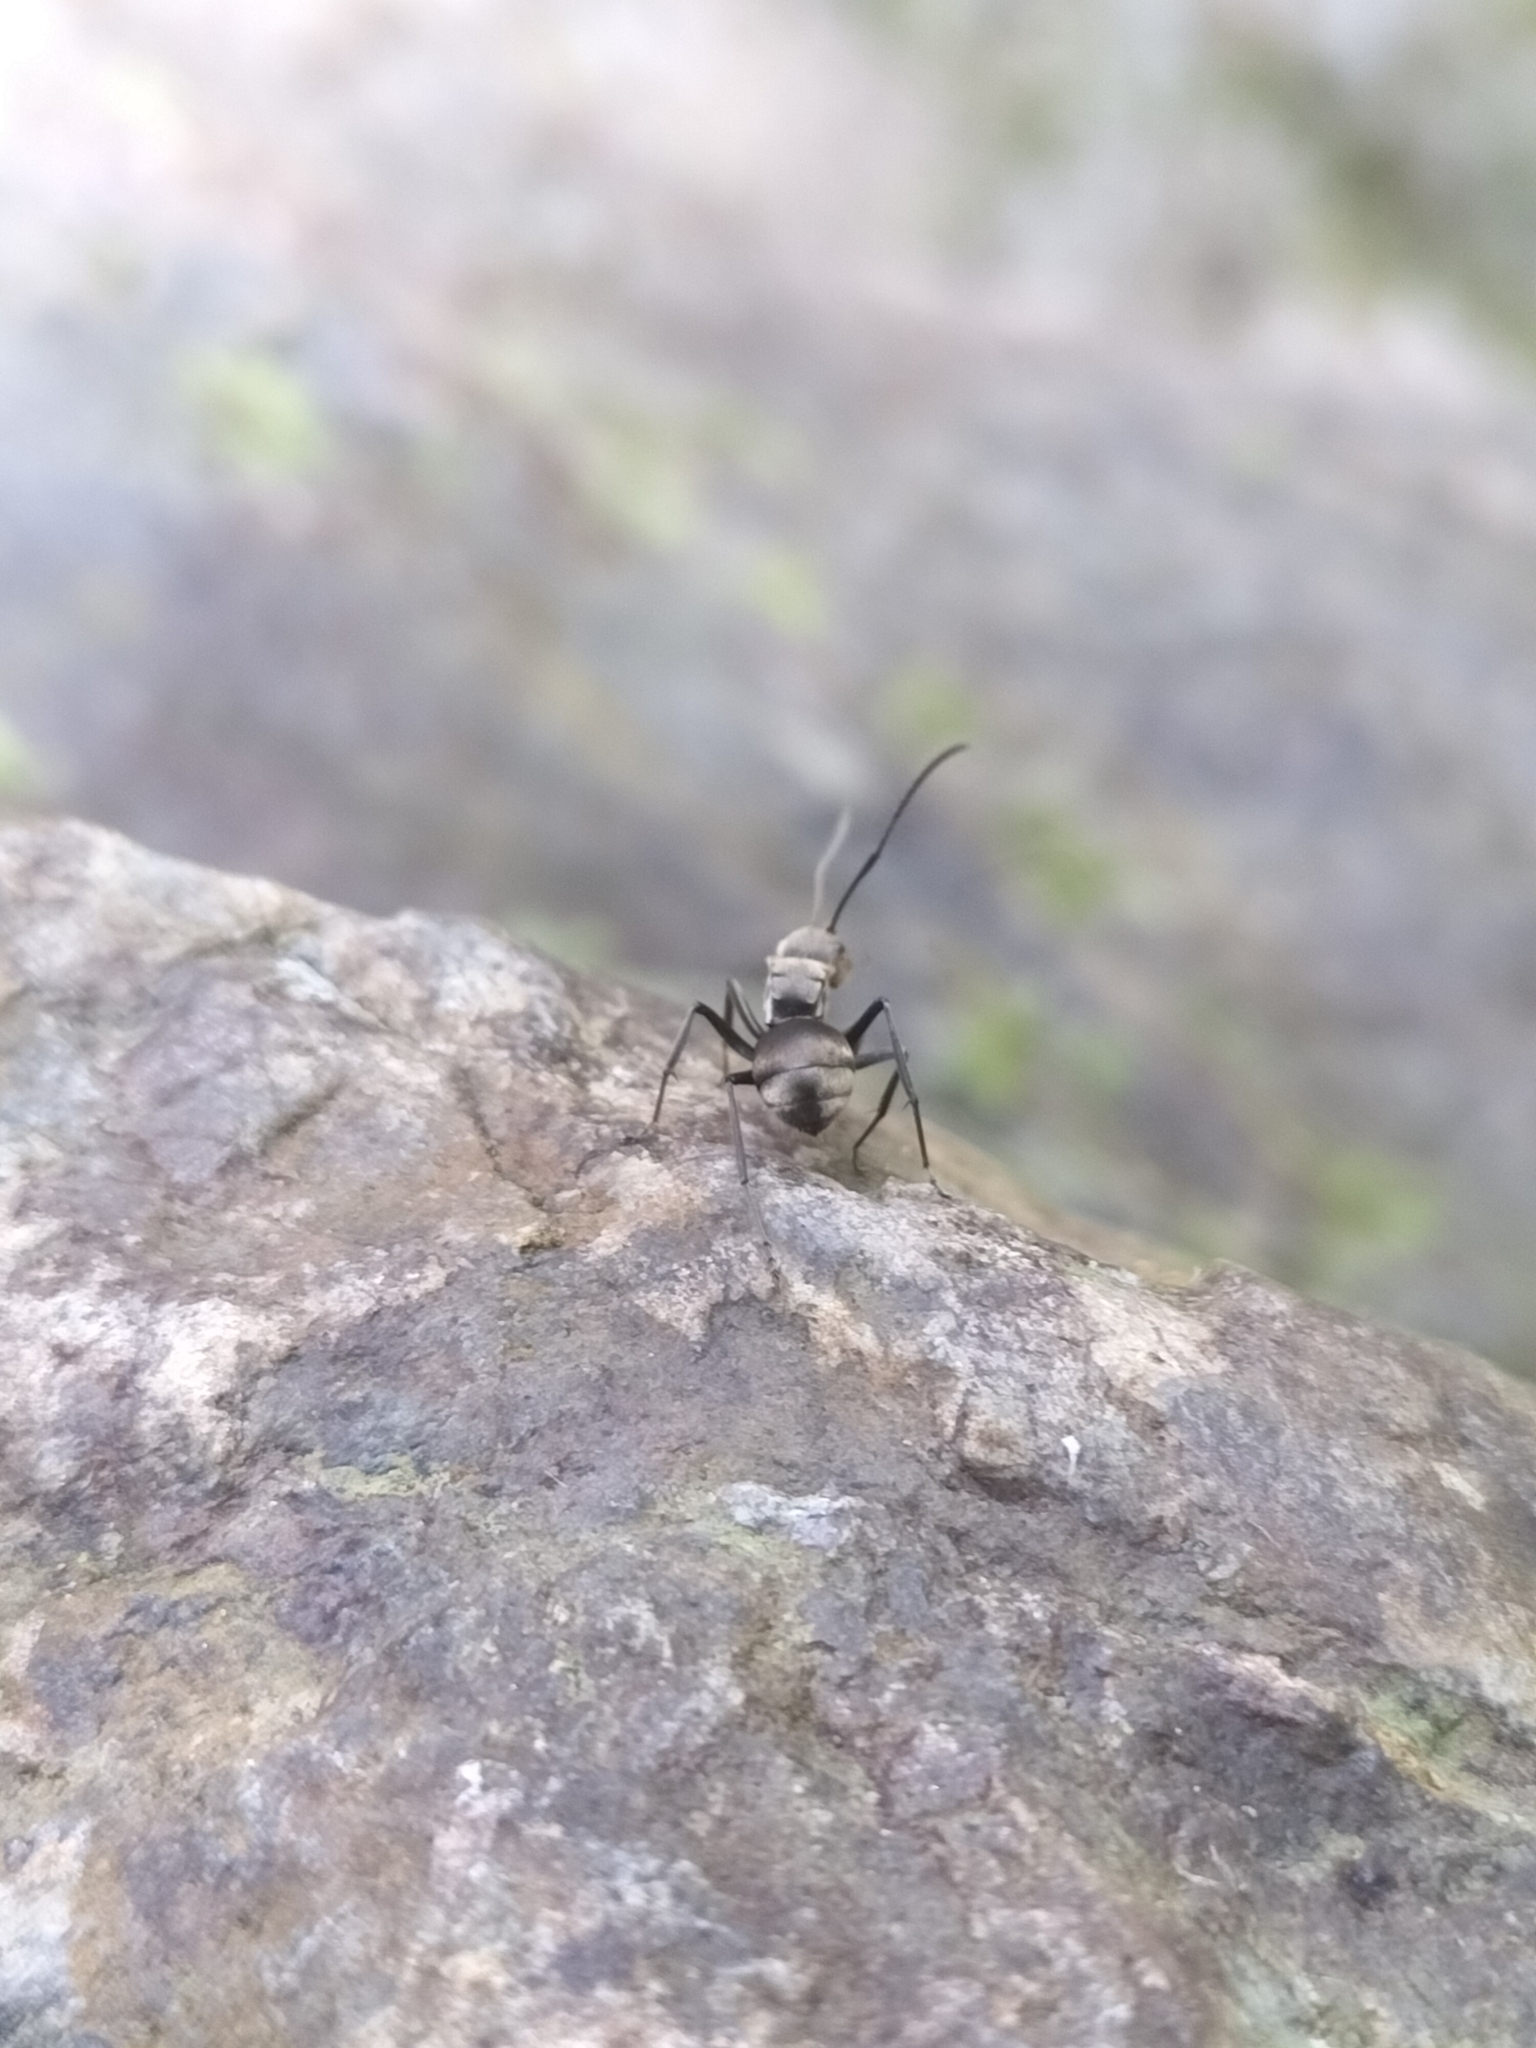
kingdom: Animalia
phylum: Arthropoda
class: Insecta
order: Hymenoptera
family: Formicidae
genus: Polyrhachis
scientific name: Polyrhachis foreli
